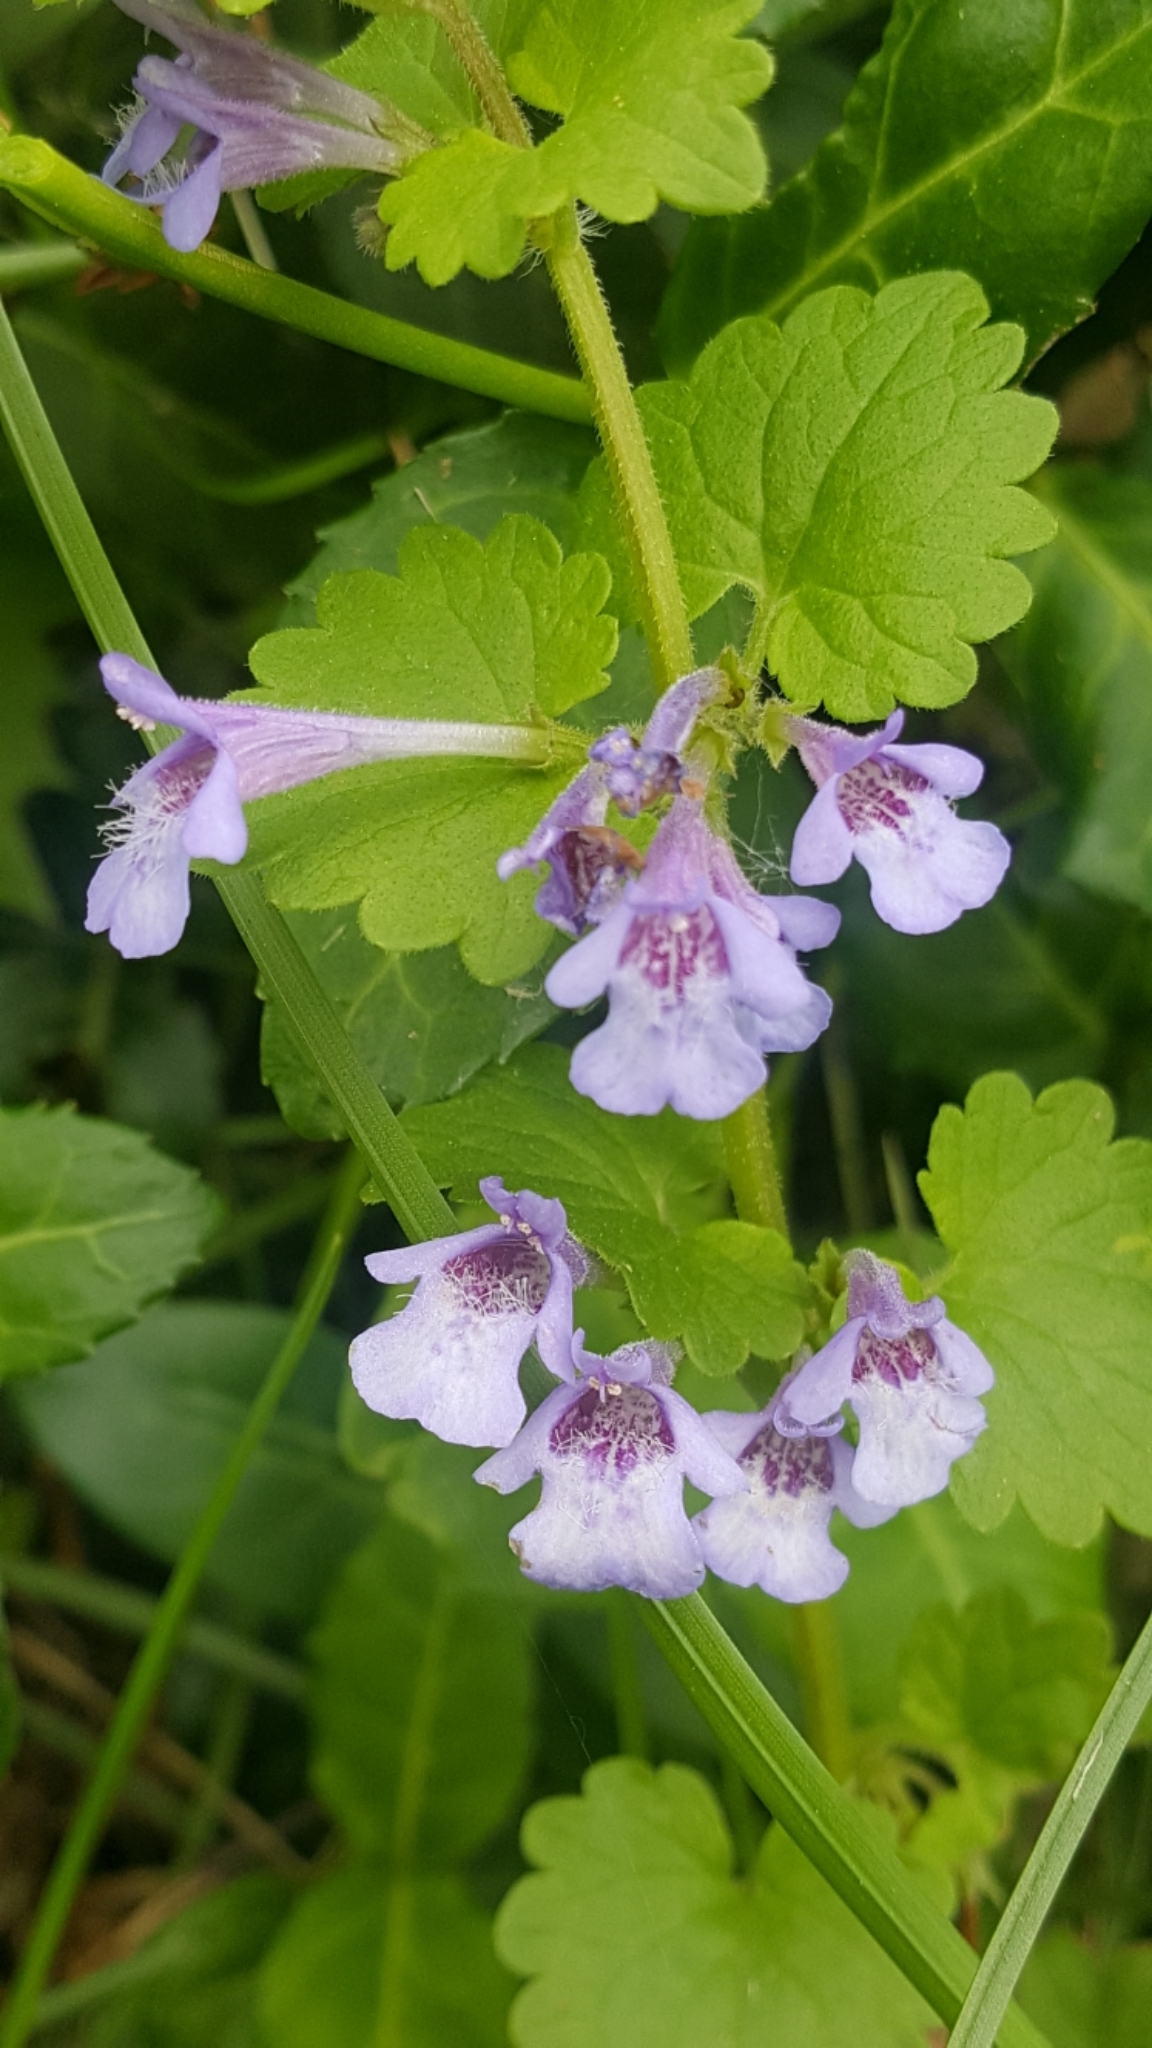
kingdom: Plantae
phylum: Tracheophyta
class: Magnoliopsida
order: Lamiales
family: Lamiaceae
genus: Glechoma
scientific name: Glechoma hederacea
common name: Ground ivy
